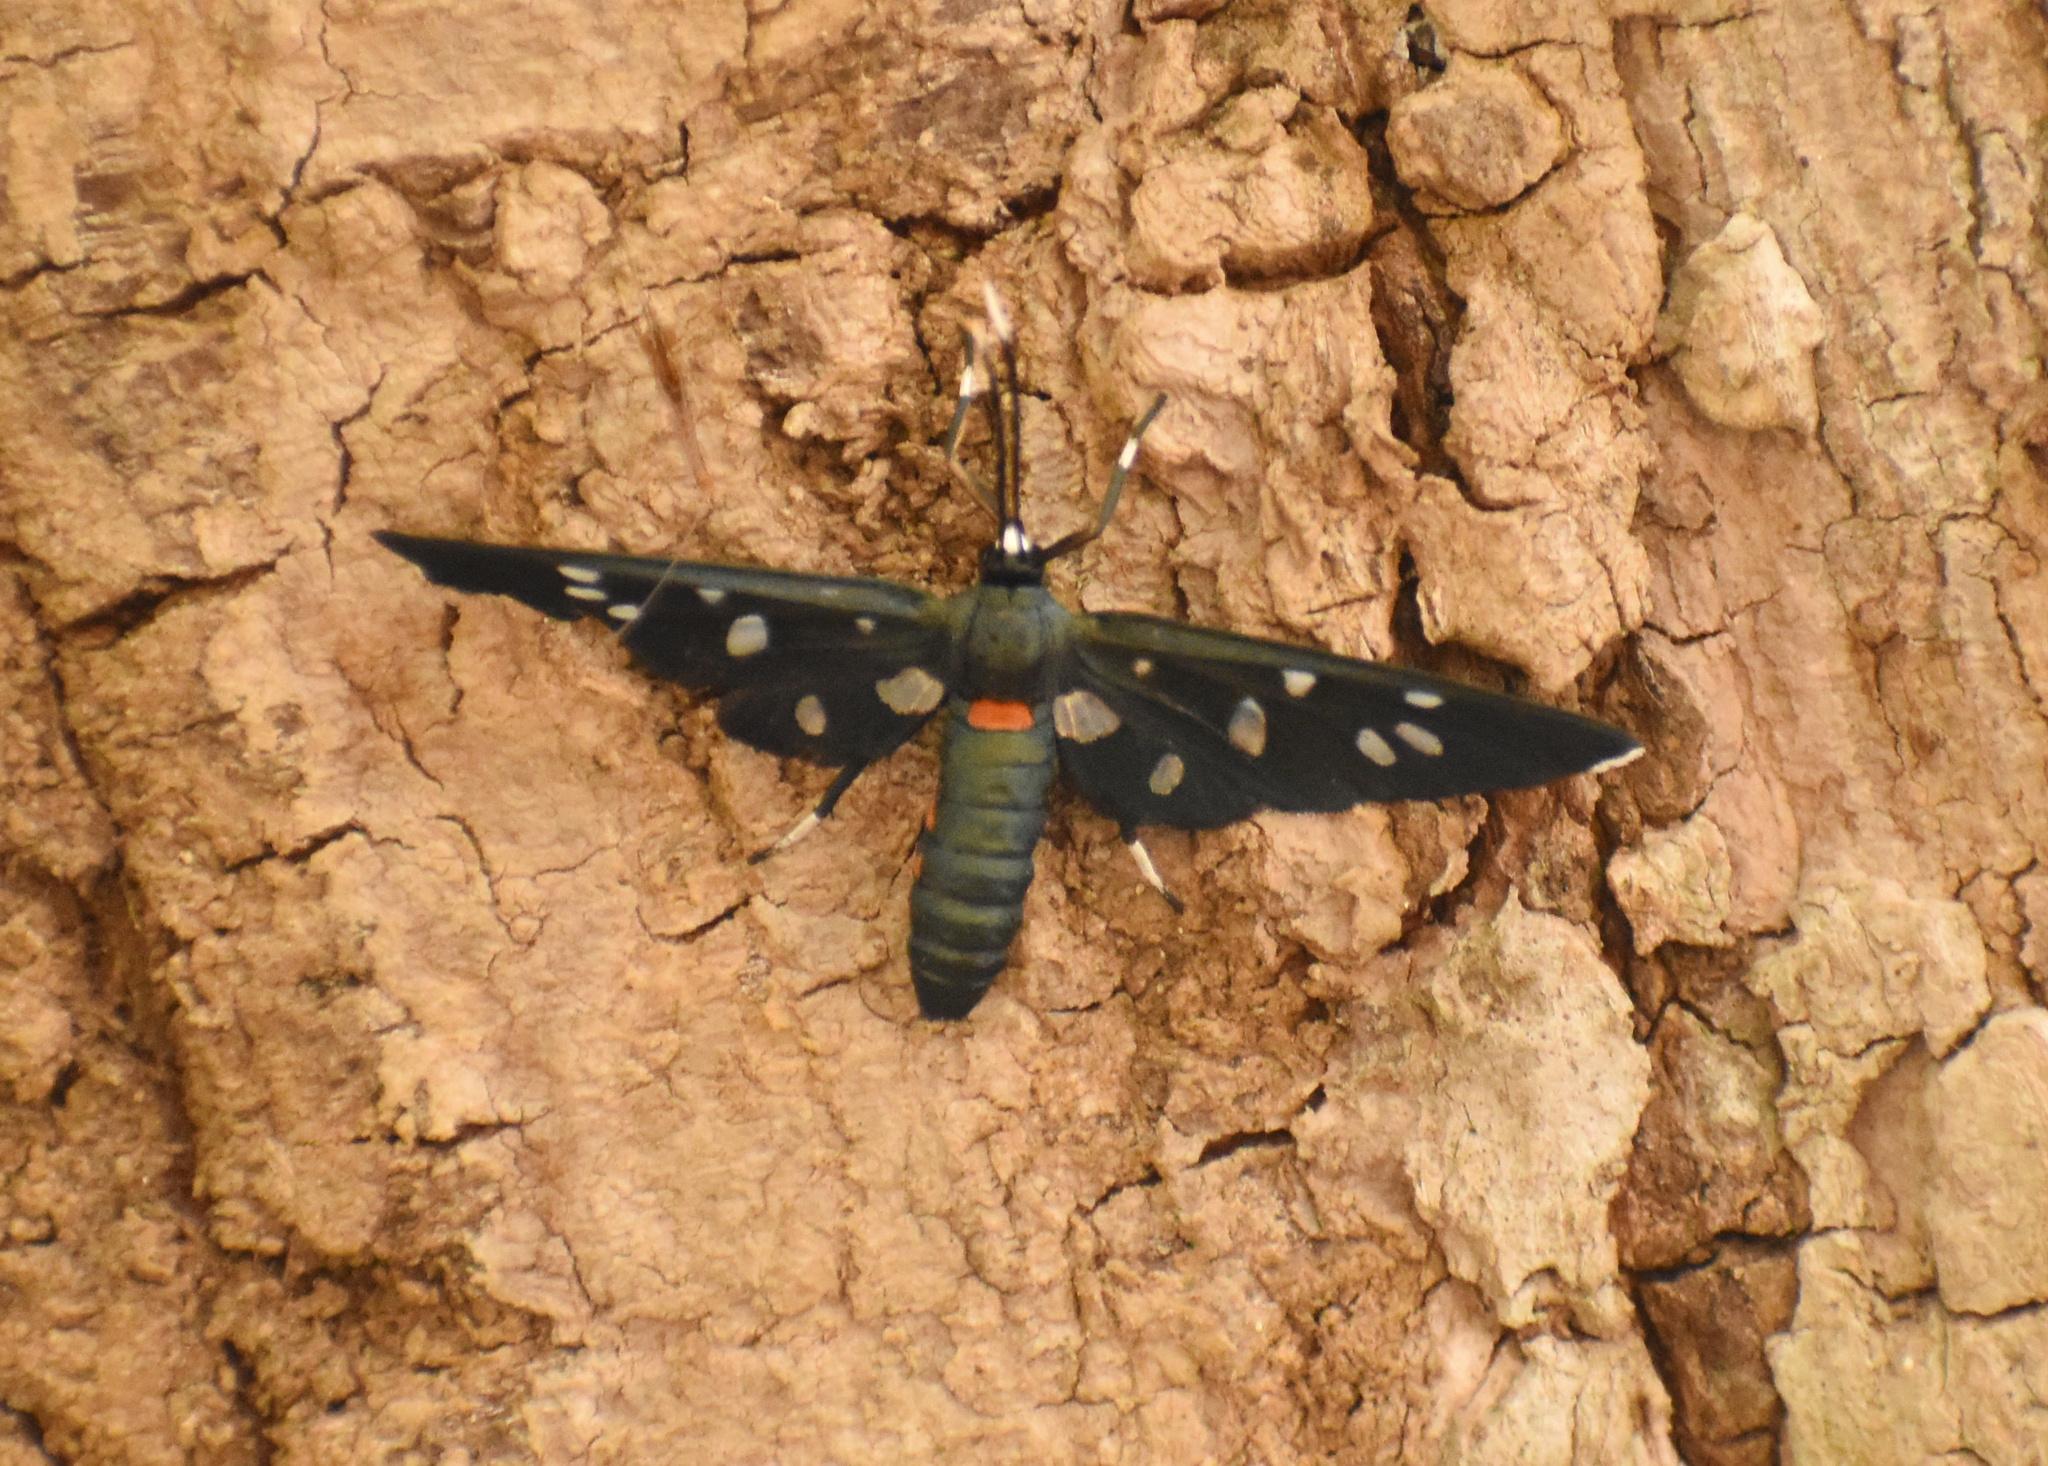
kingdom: Animalia
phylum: Arthropoda
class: Insecta
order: Lepidoptera
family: Erebidae
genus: Amata
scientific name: Amata kuhlweini
